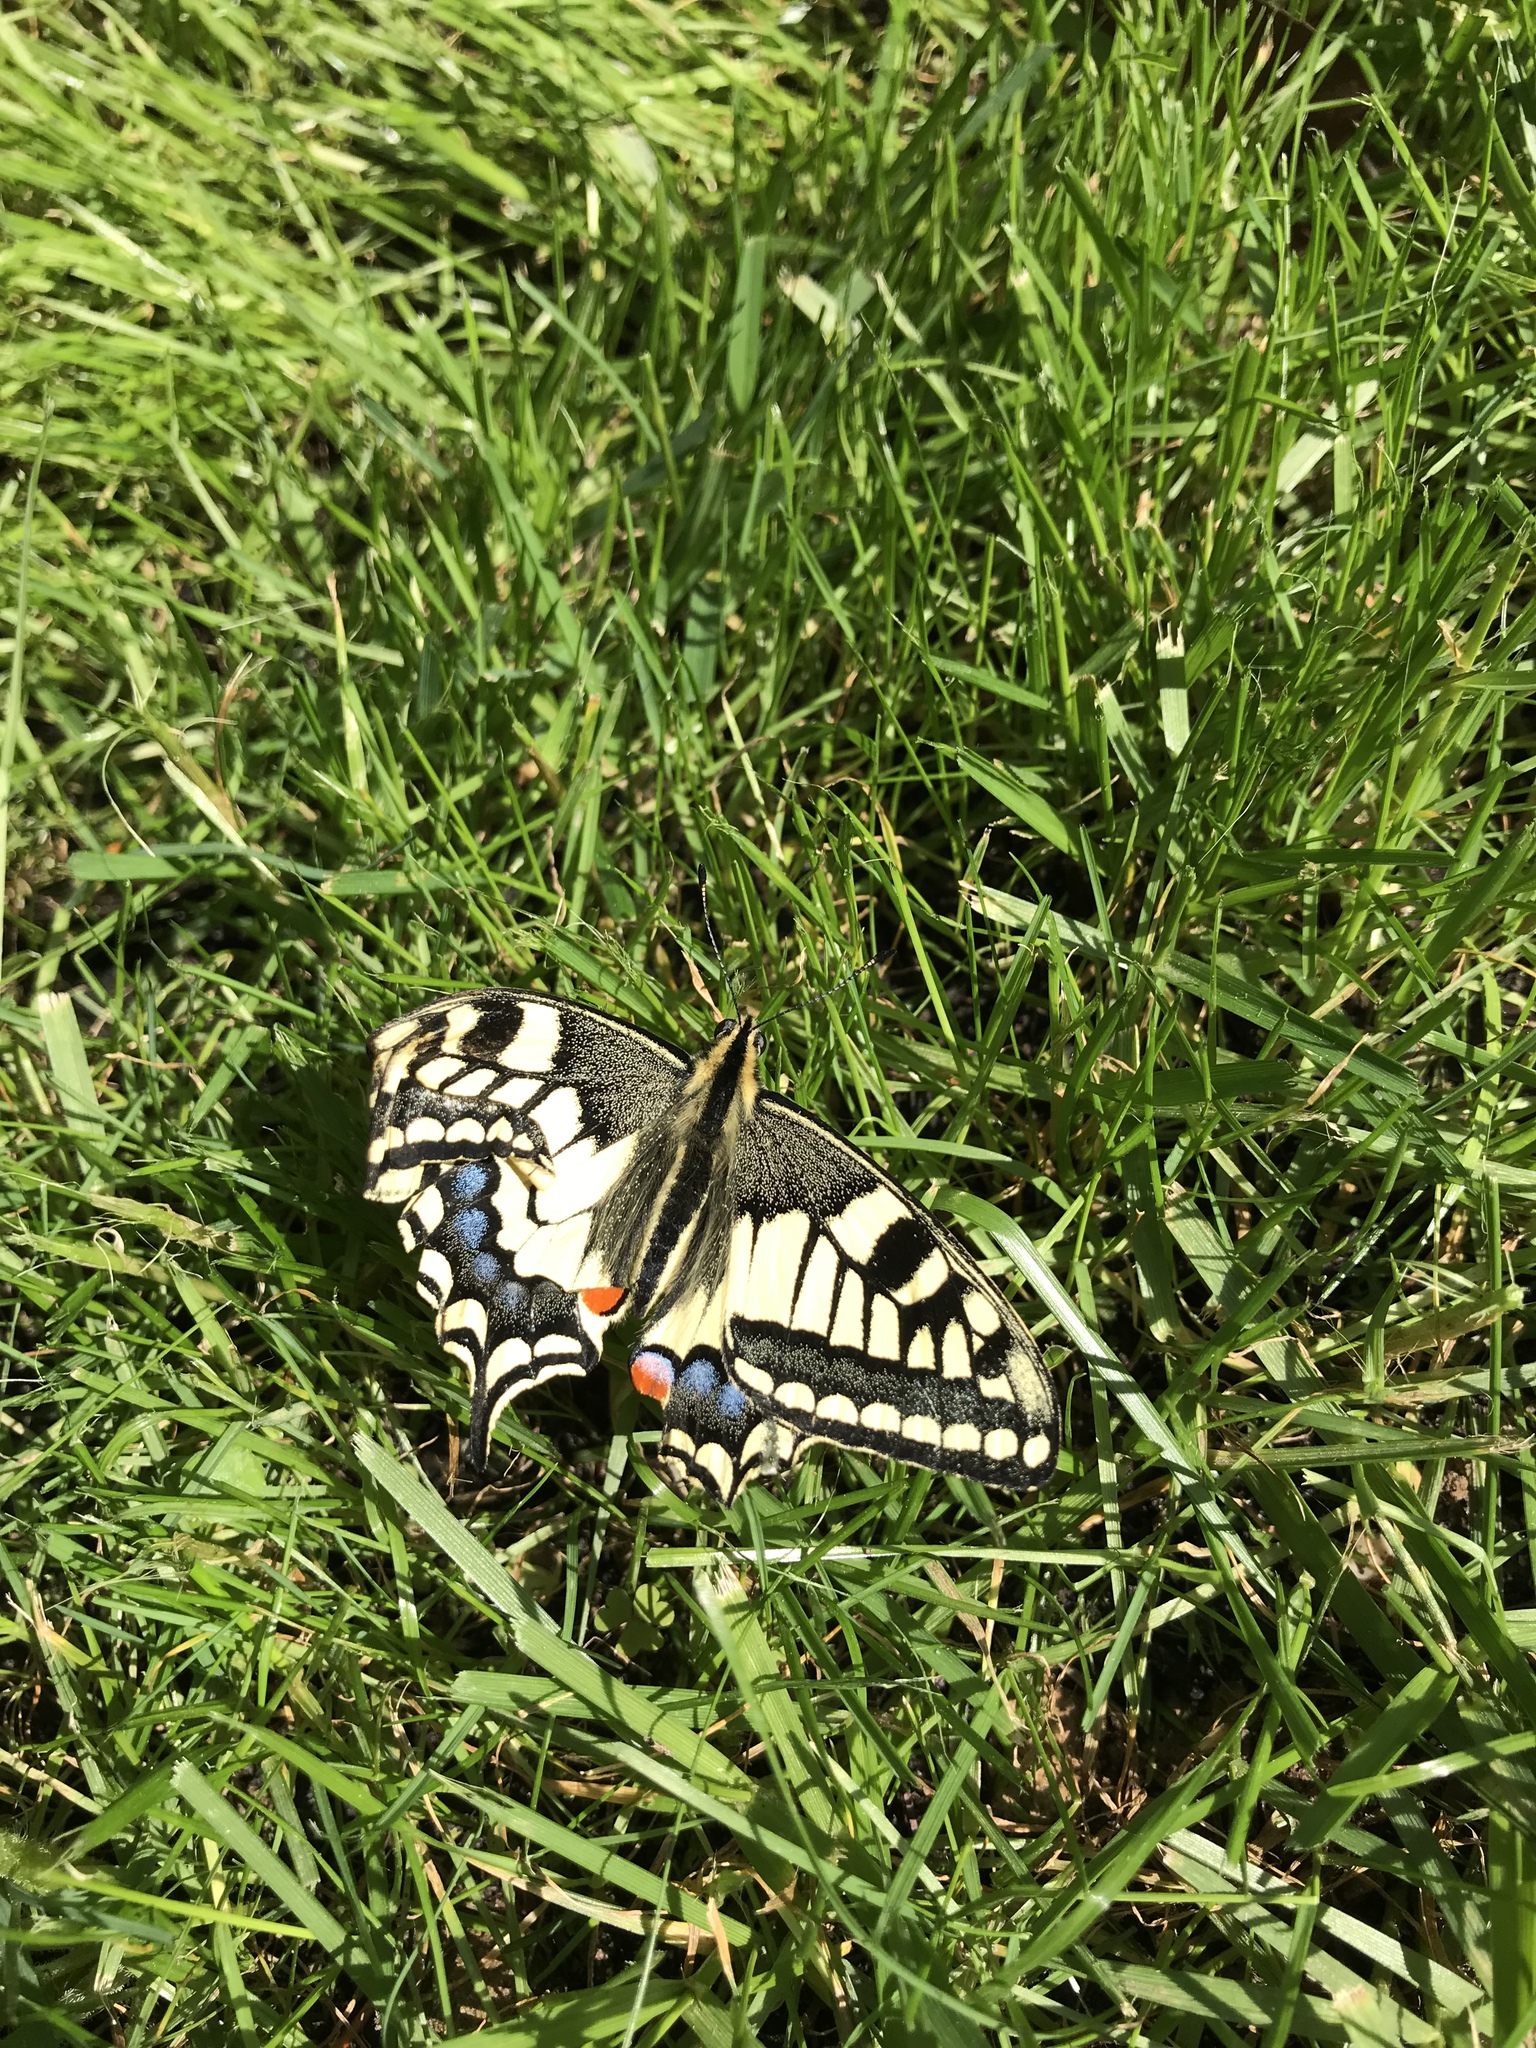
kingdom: Animalia
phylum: Arthropoda
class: Insecta
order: Lepidoptera
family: Papilionidae
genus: Papilio
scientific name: Papilio machaon
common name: Swallowtail
